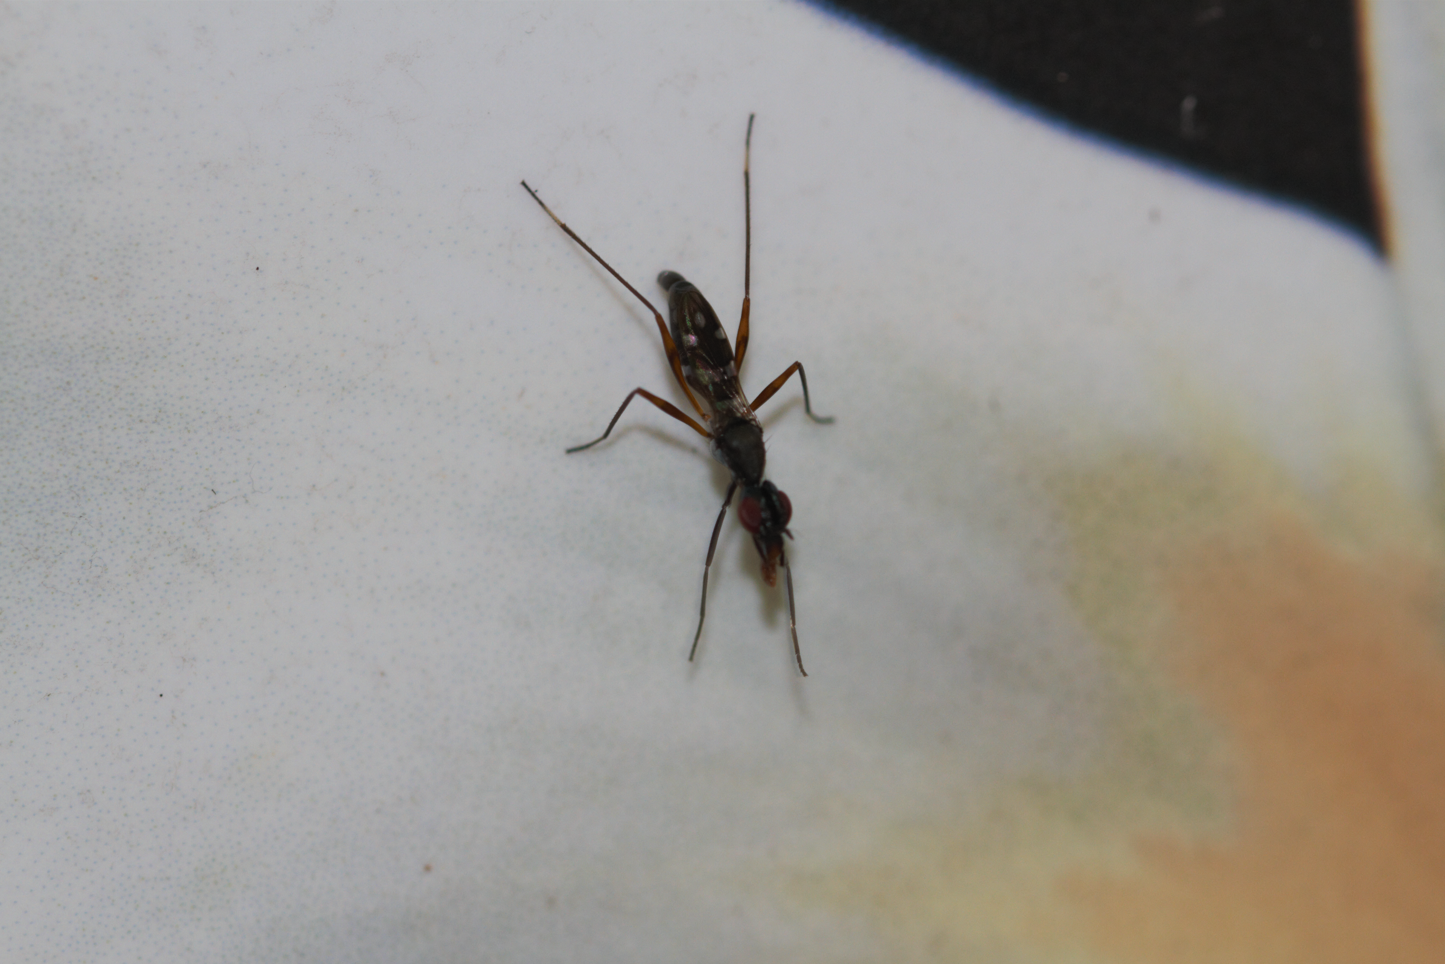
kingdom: Animalia
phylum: Arthropoda
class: Insecta
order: Diptera
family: Micropezidae
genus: Cardiacephala
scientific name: Cardiacephala guttata
